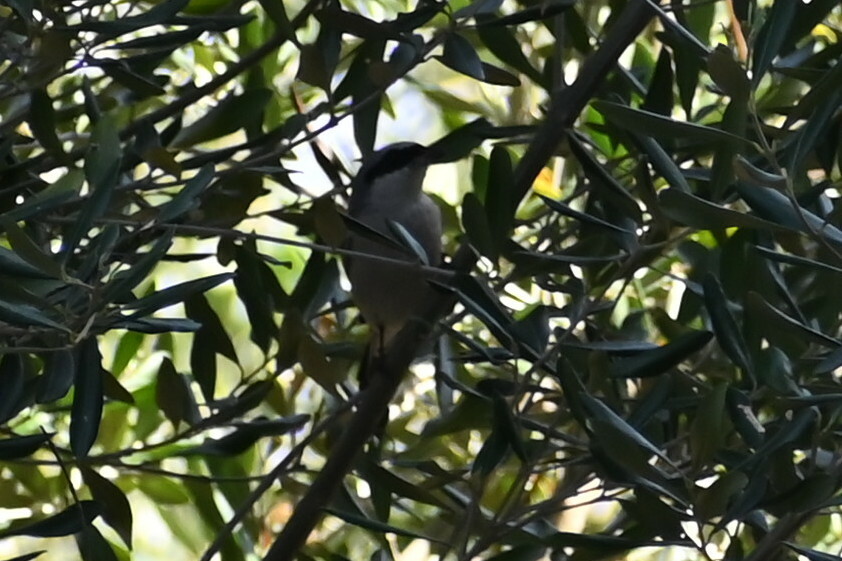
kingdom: Animalia
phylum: Chordata
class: Aves
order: Passeriformes
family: Laniidae
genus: Lanius
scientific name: Lanius collurio
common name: Red-backed shrike
